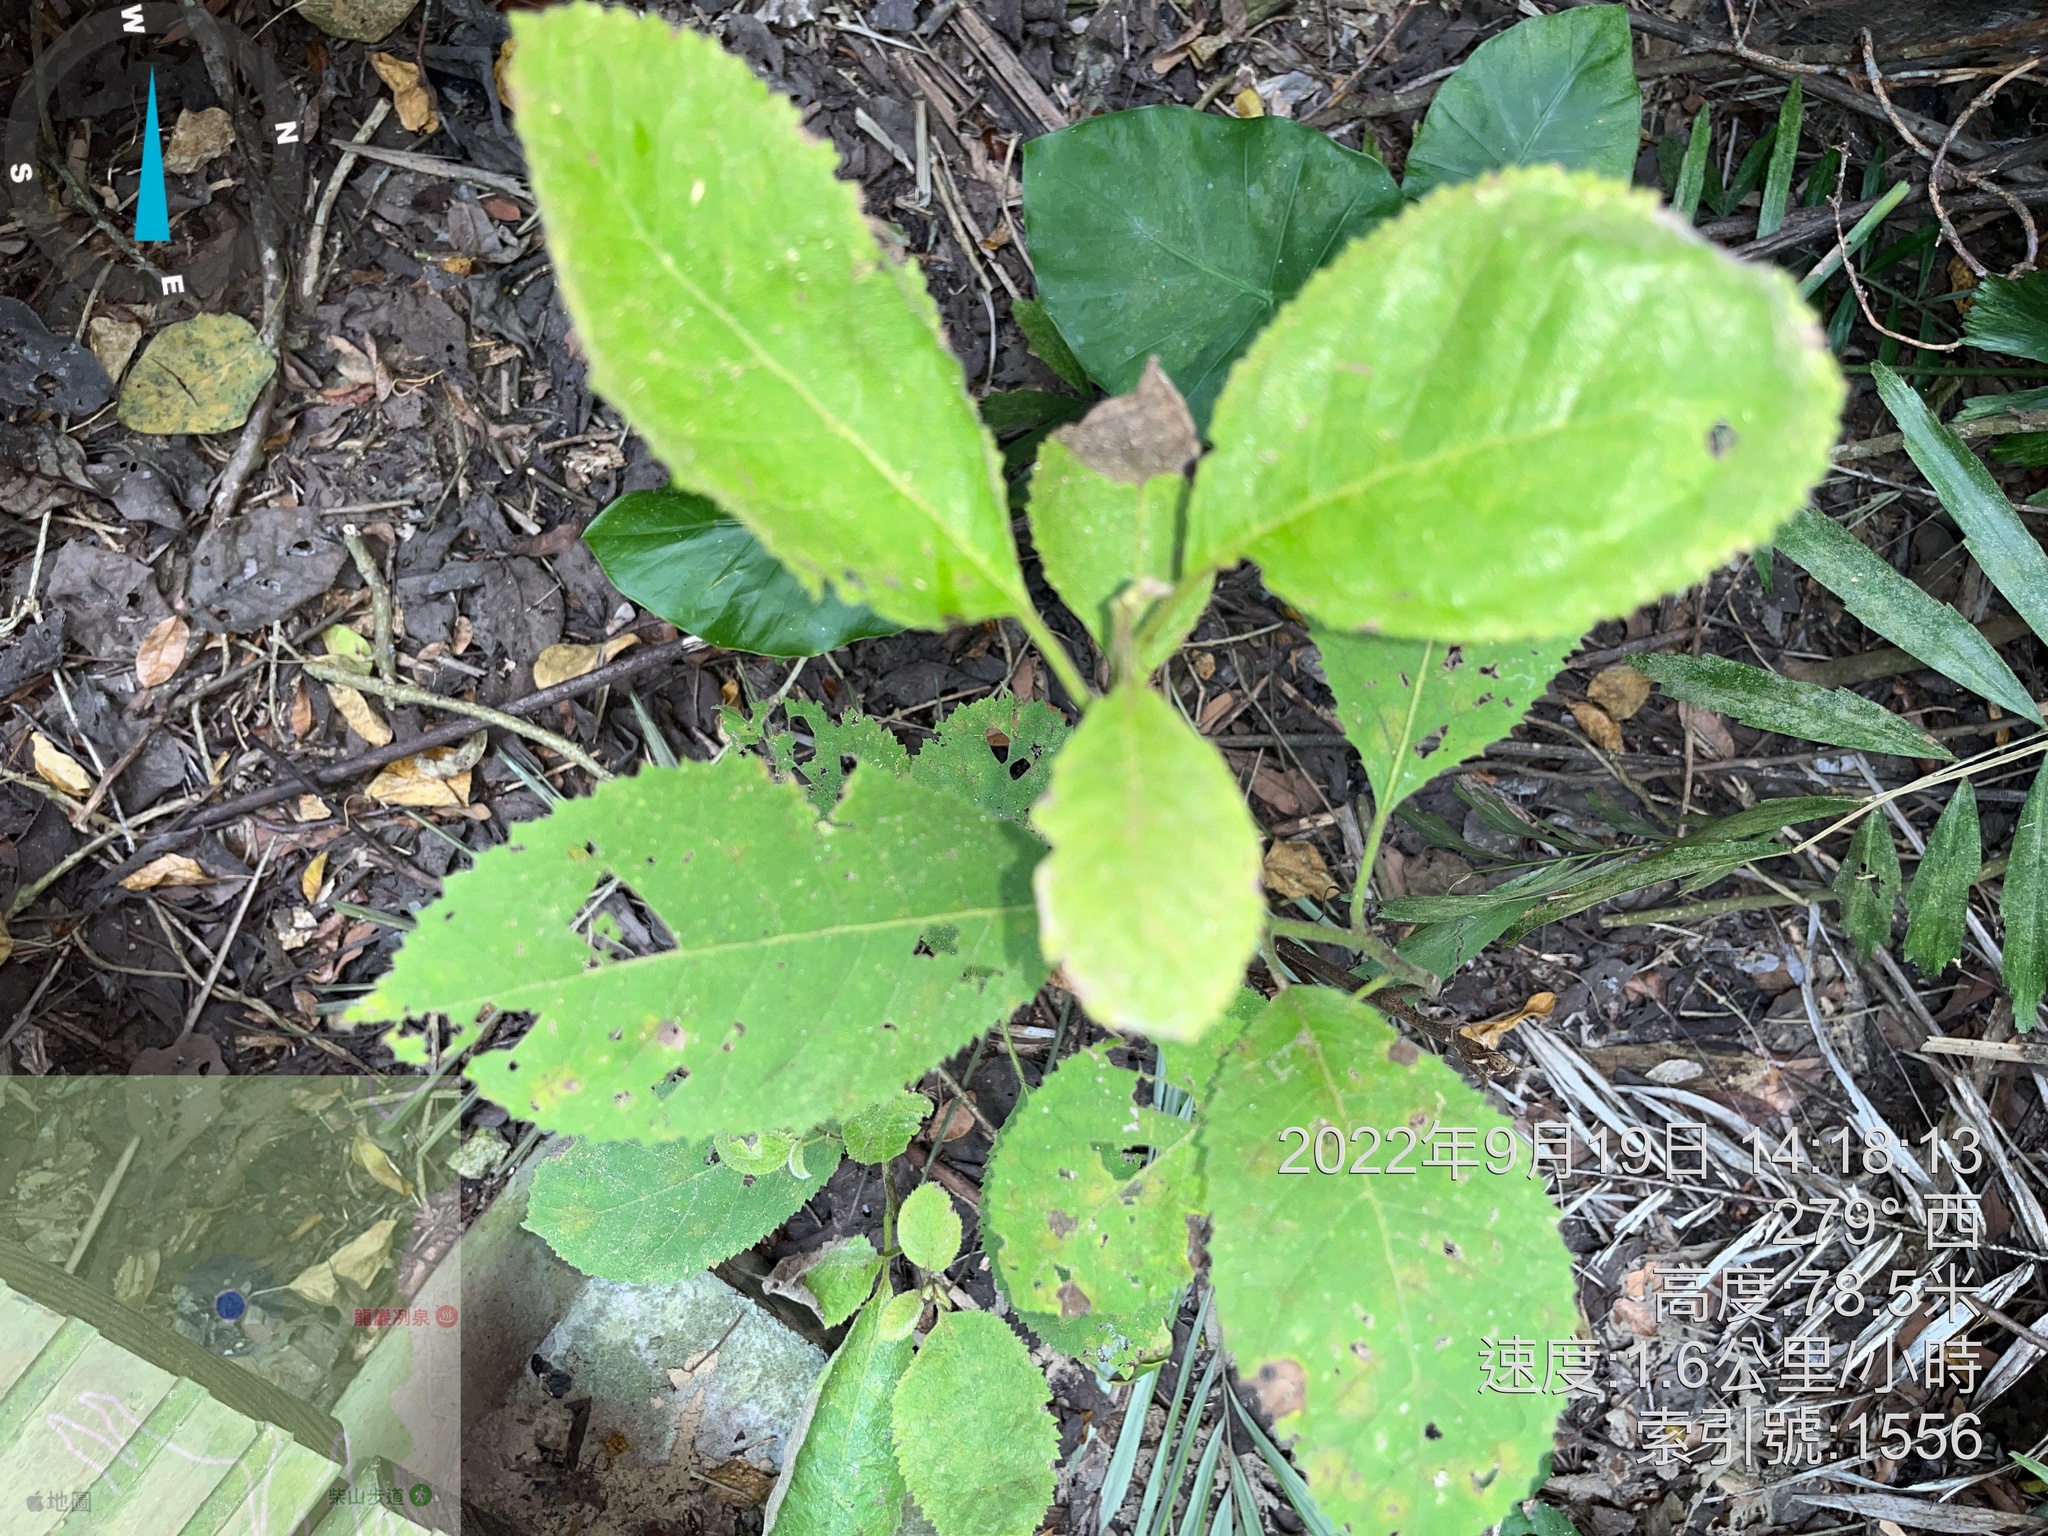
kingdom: Plantae
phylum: Tracheophyta
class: Magnoliopsida
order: Boraginales
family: Ehretiaceae
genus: Ehretia
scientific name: Ehretia dicksonii
